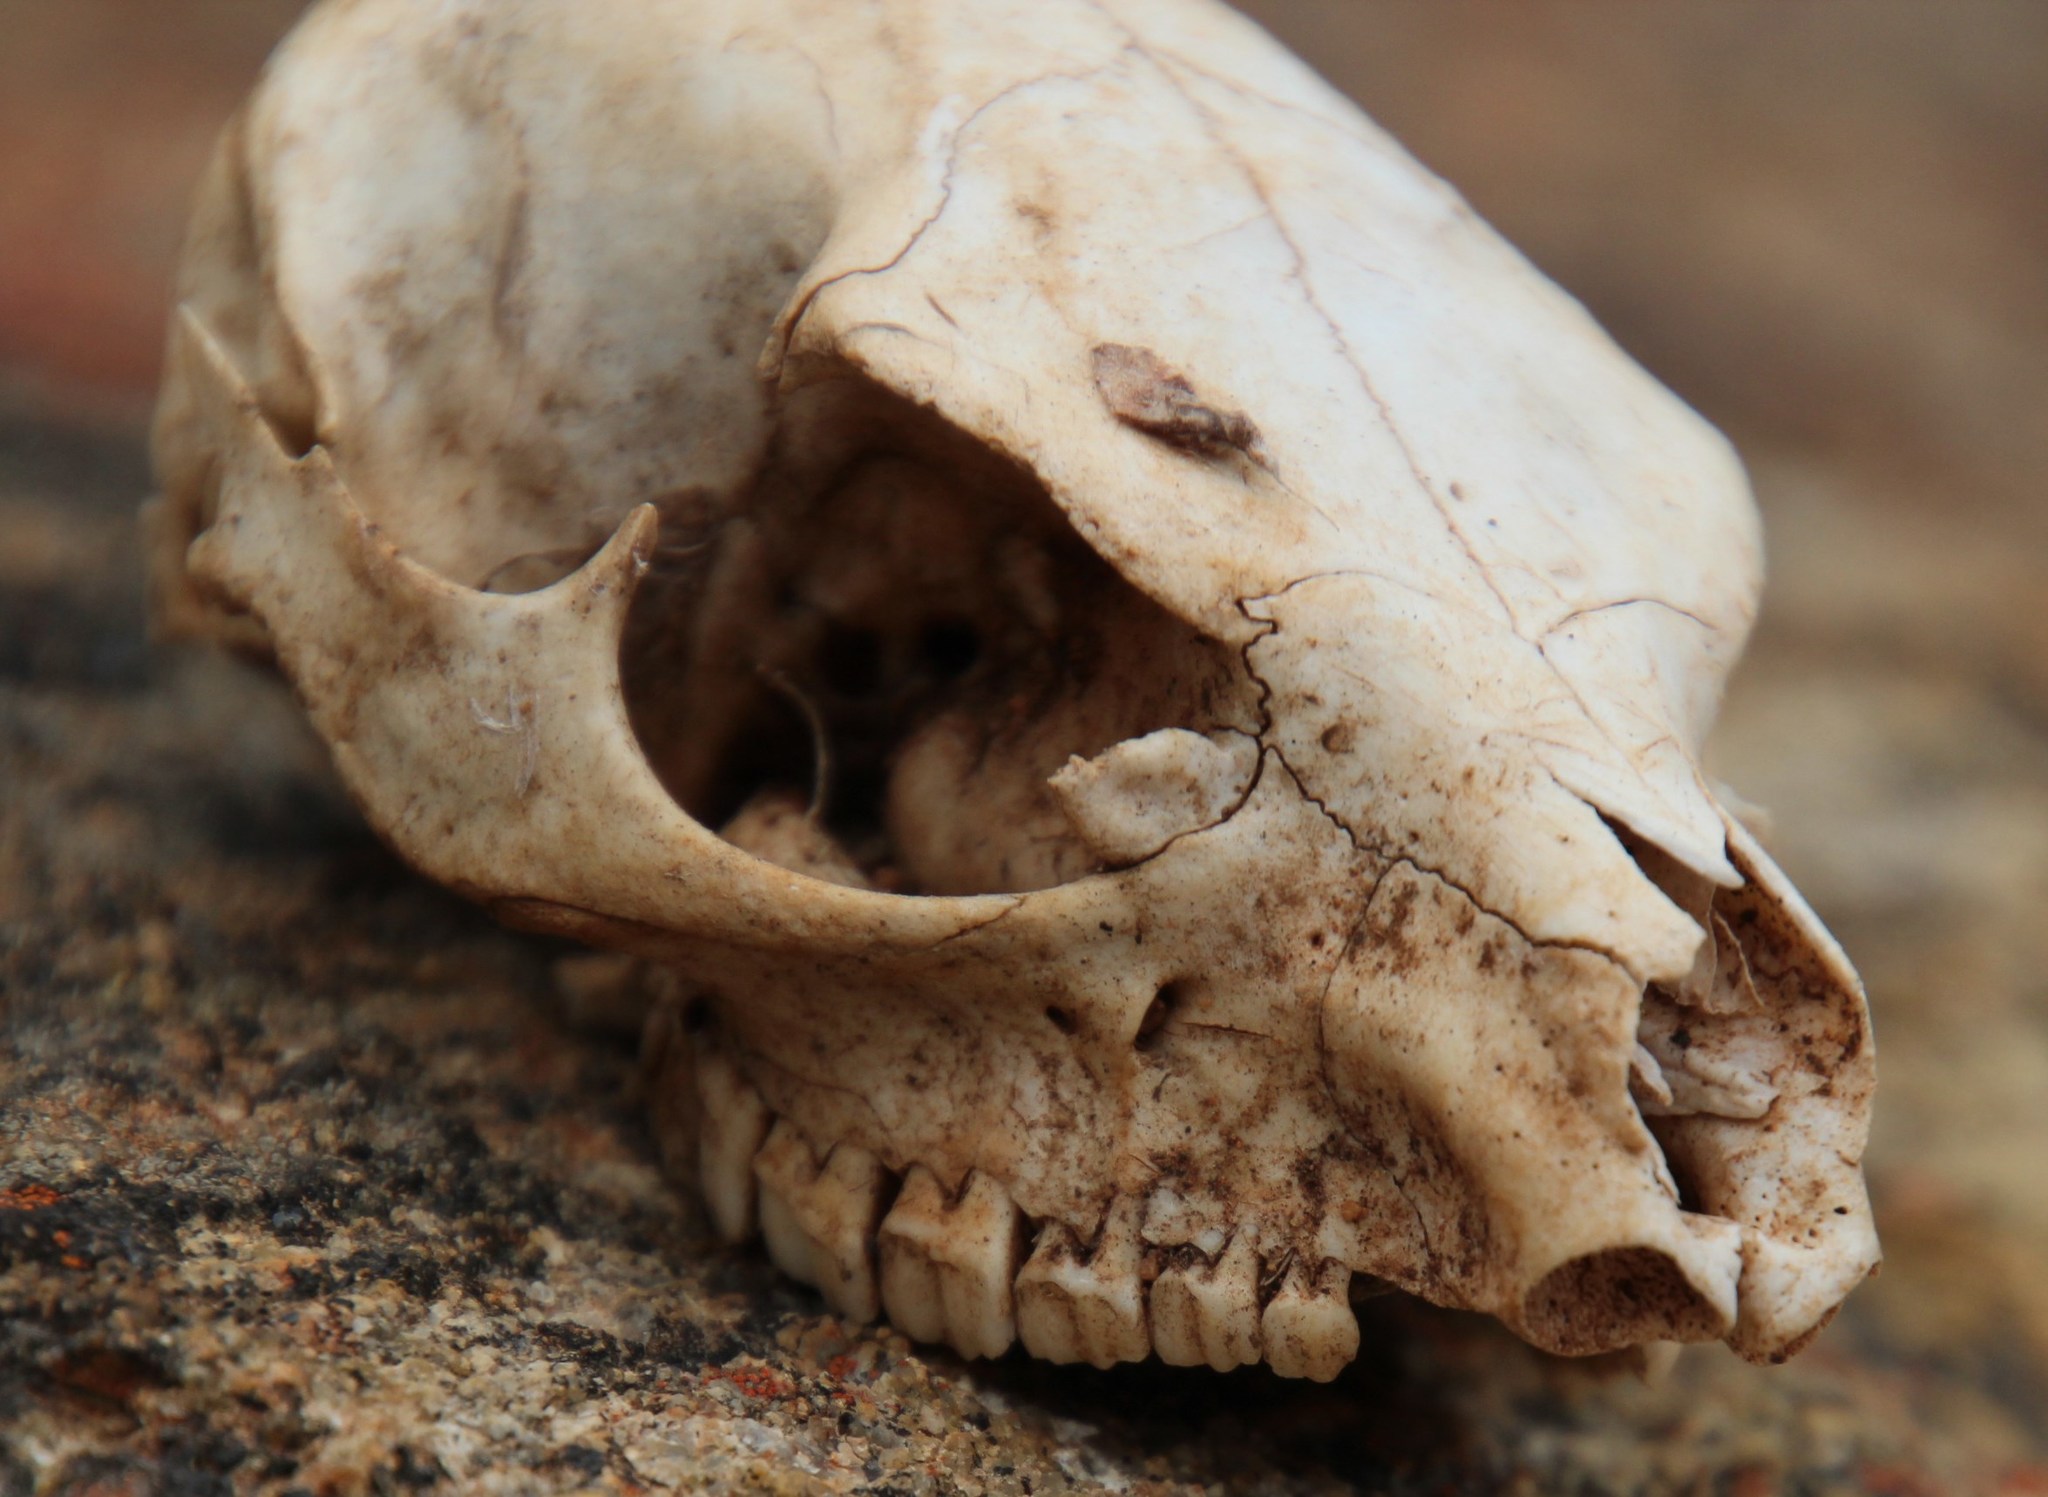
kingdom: Animalia
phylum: Chordata
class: Mammalia
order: Hyracoidea
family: Procaviidae
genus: Procavia
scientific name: Procavia capensis
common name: Rock hyrax
